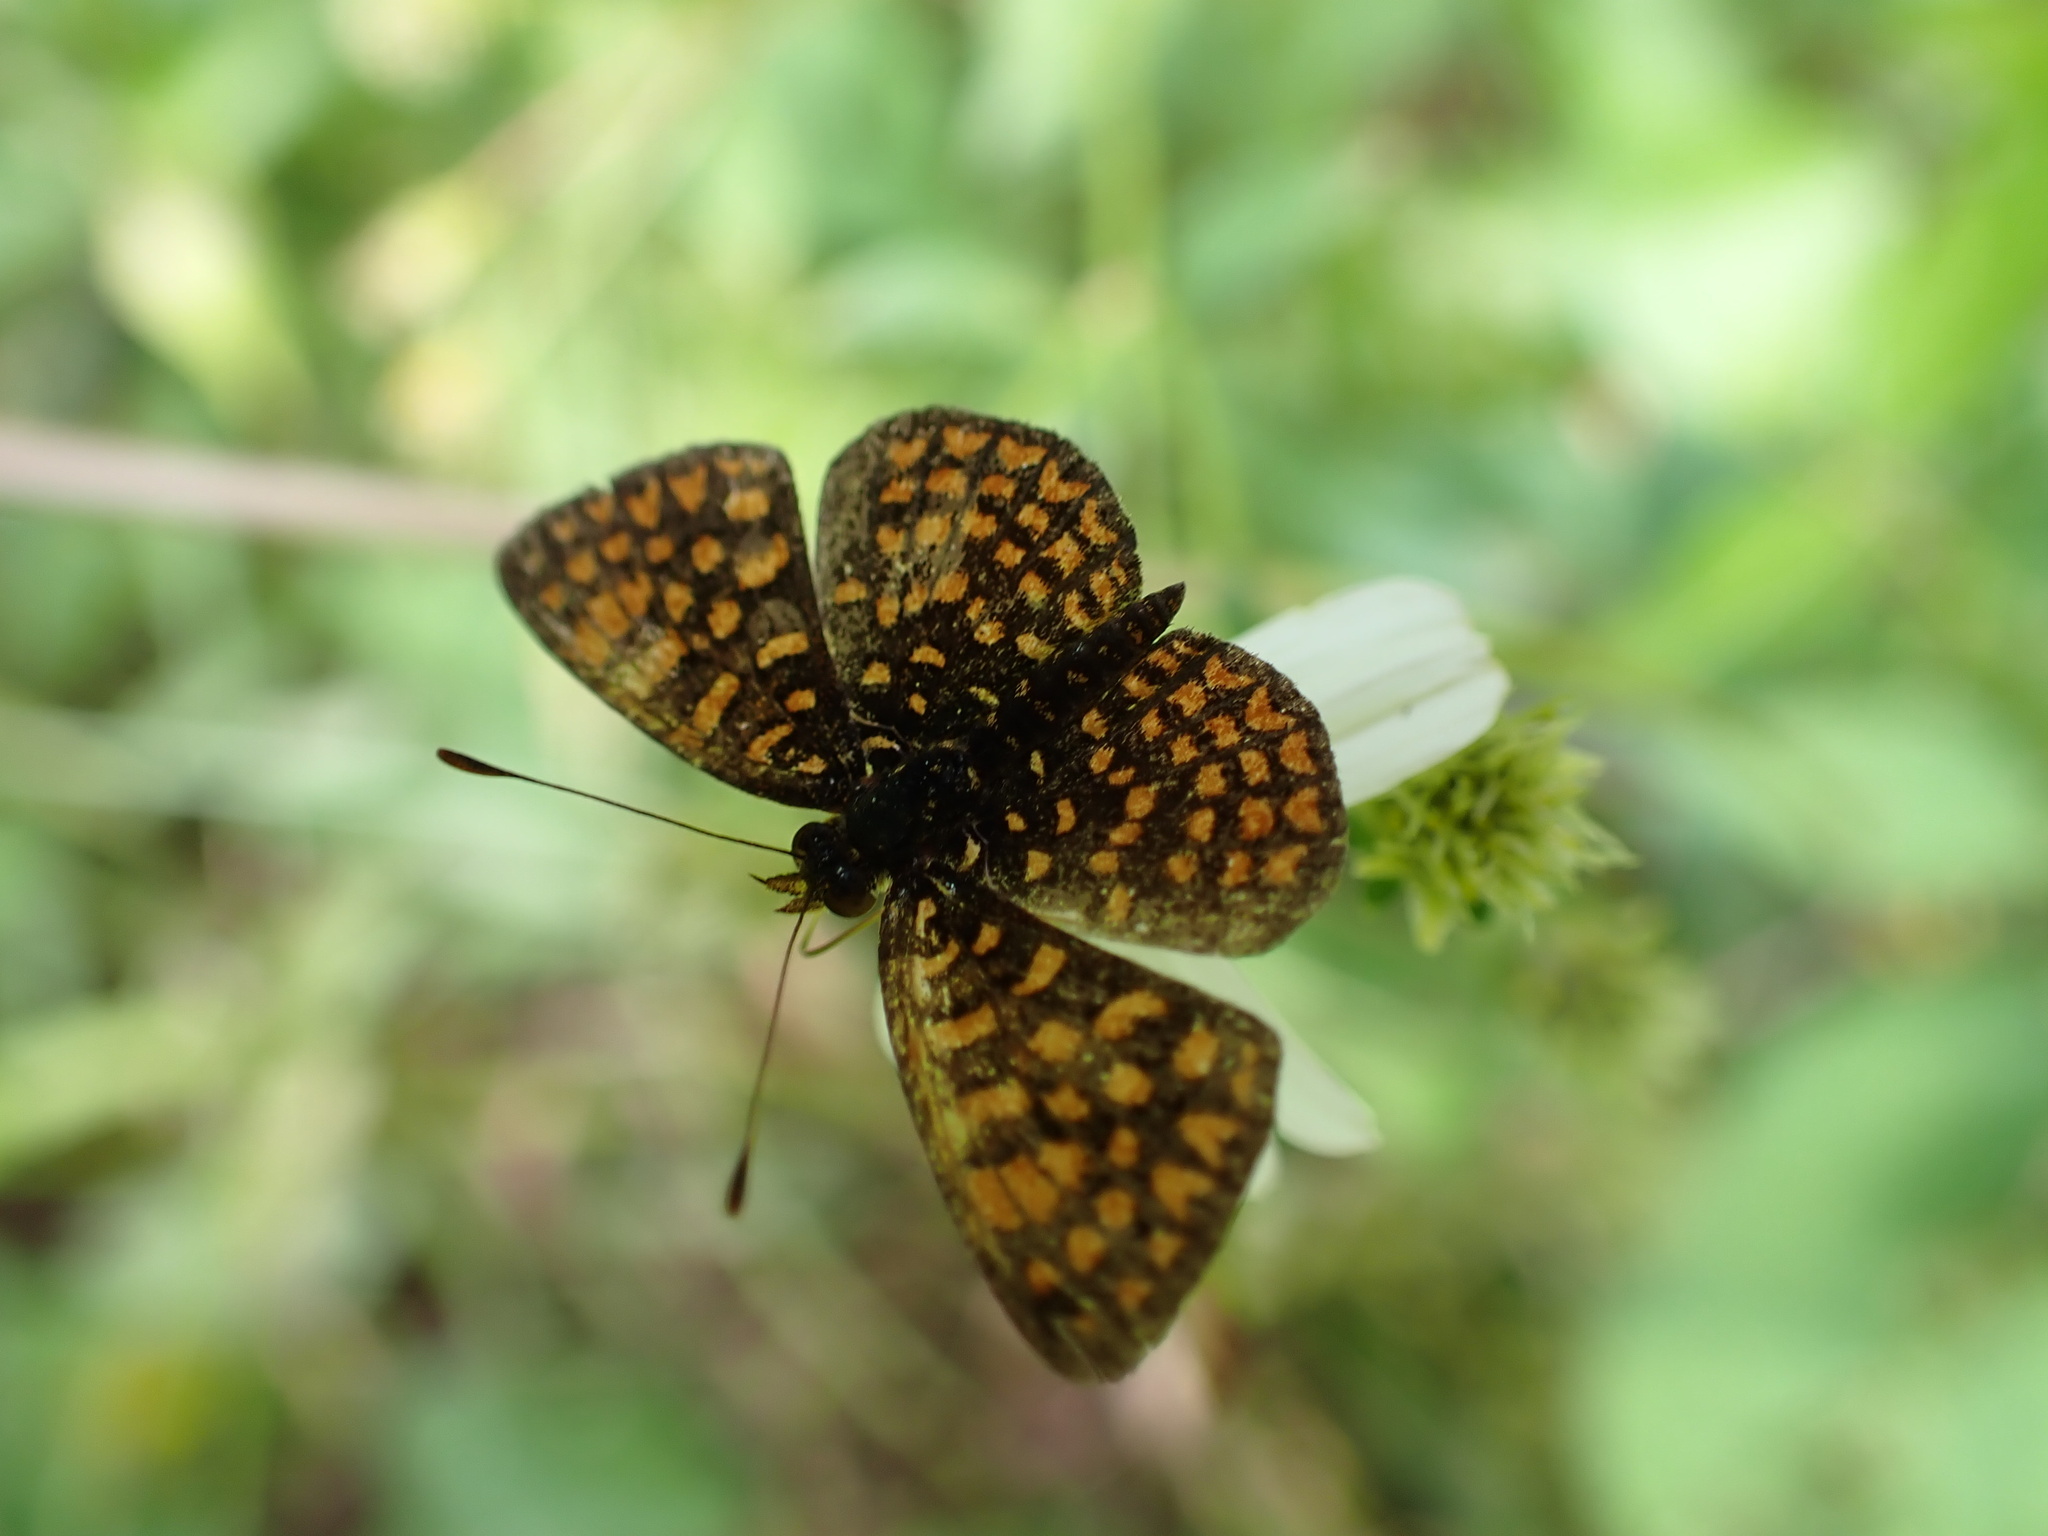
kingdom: Animalia
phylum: Arthropoda
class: Insecta
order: Lepidoptera
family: Nymphalidae
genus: Antillea
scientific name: Antillea pelops
